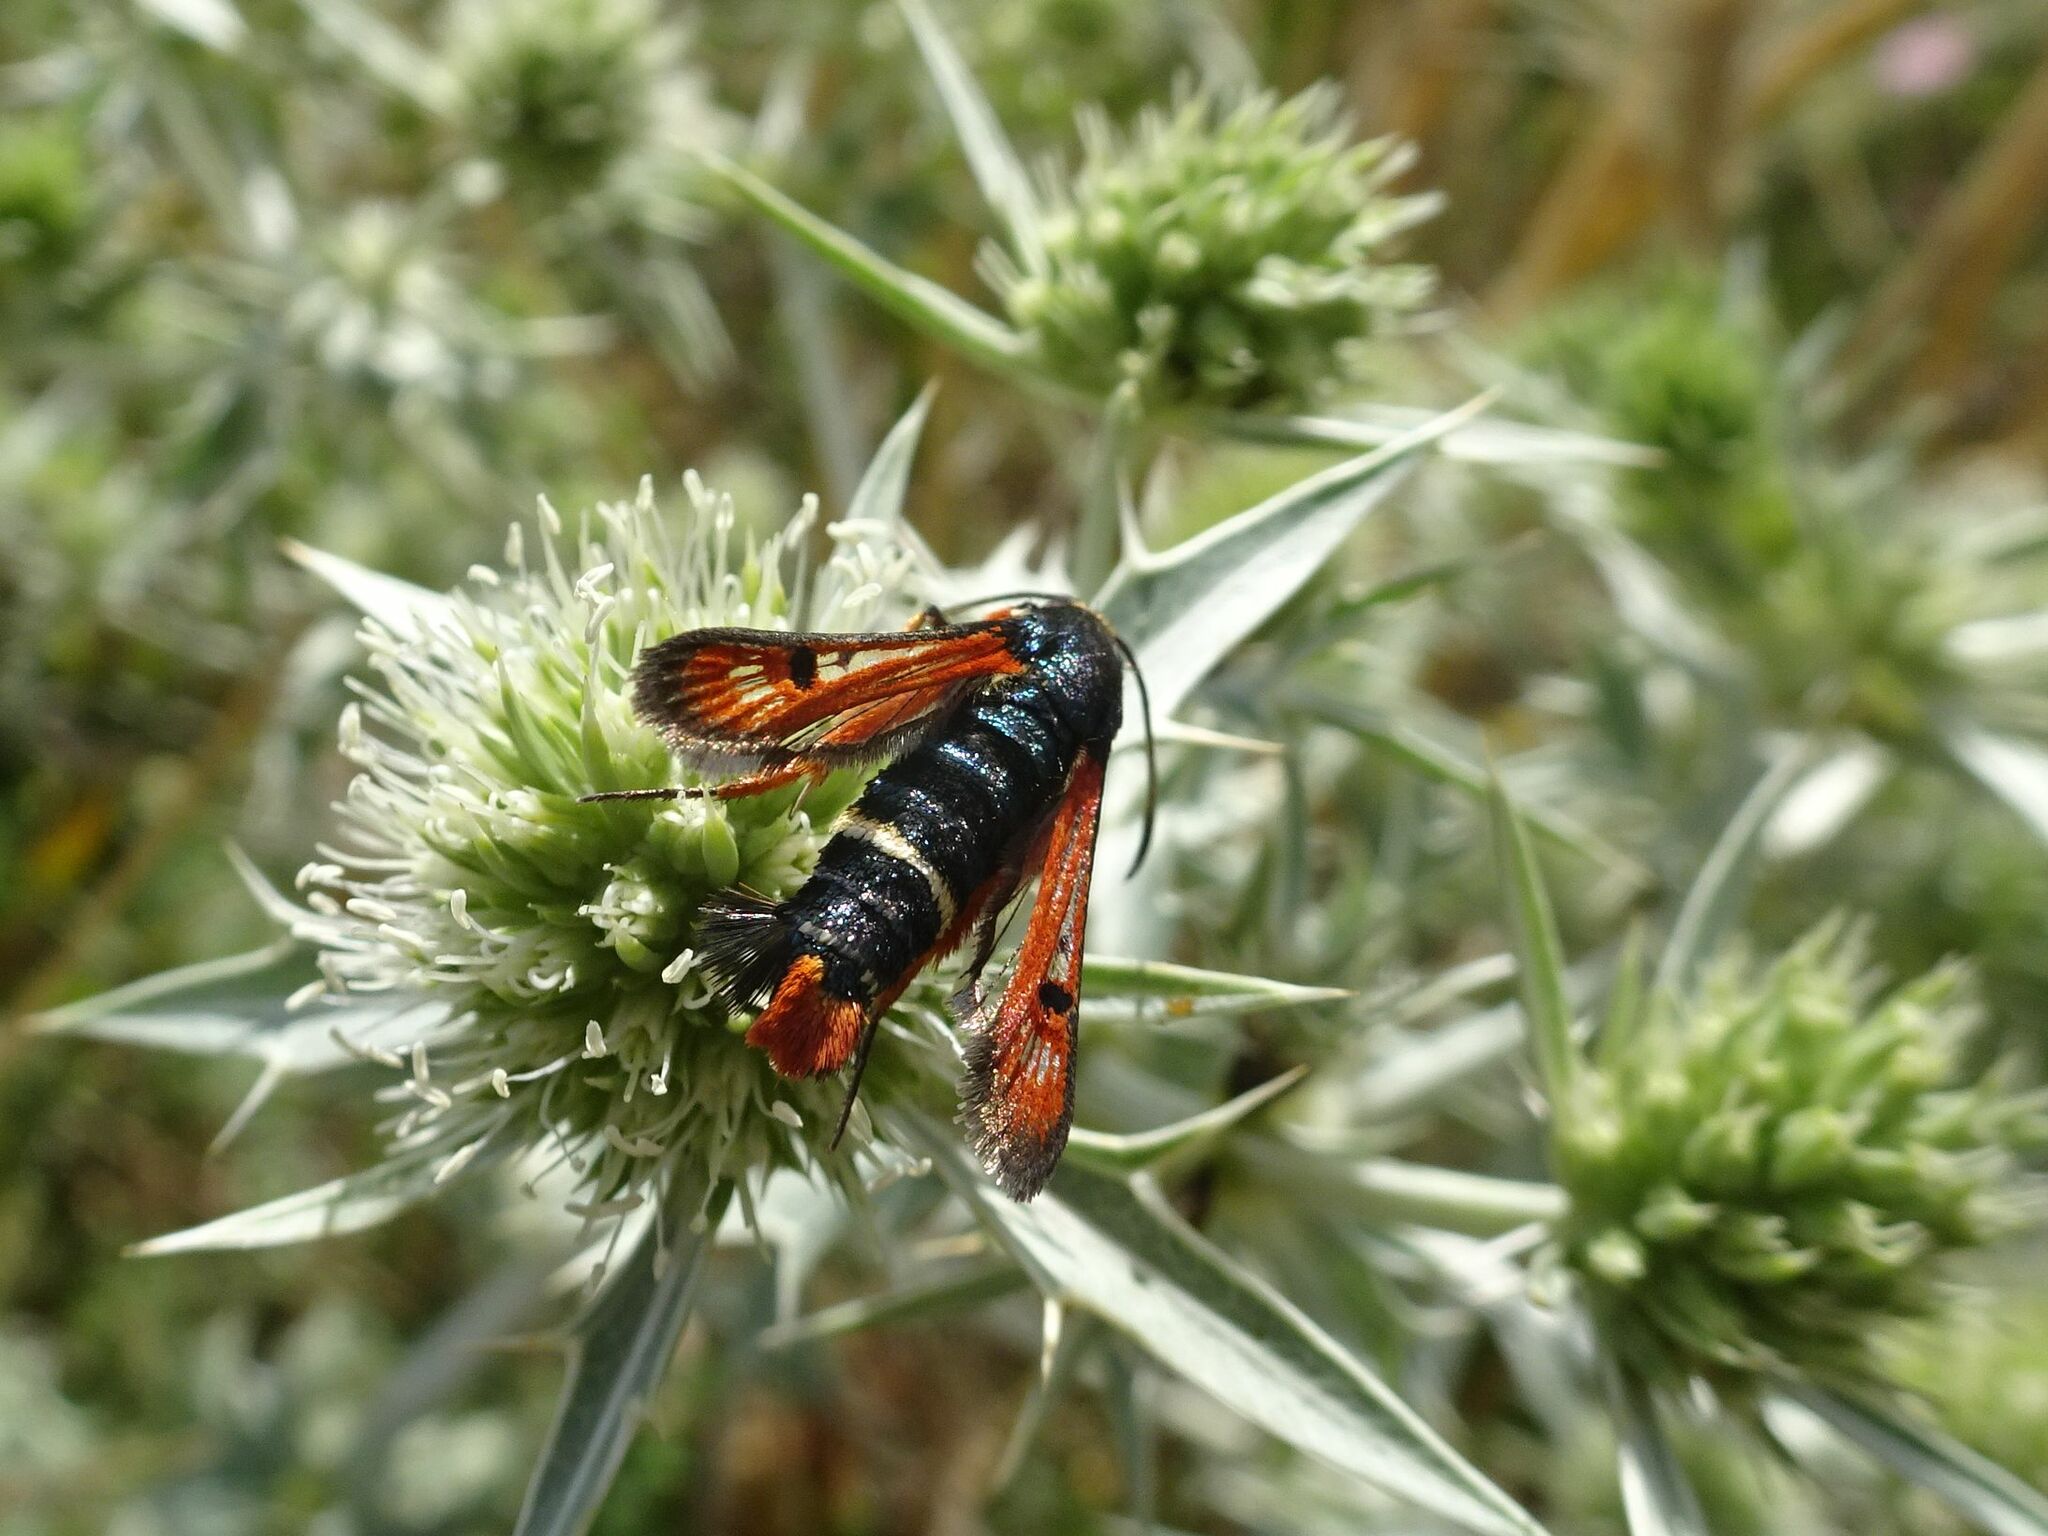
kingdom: Animalia
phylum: Arthropoda
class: Insecta
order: Lepidoptera
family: Sesiidae
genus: Pyropteron
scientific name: Pyropteron chrysidiforme
